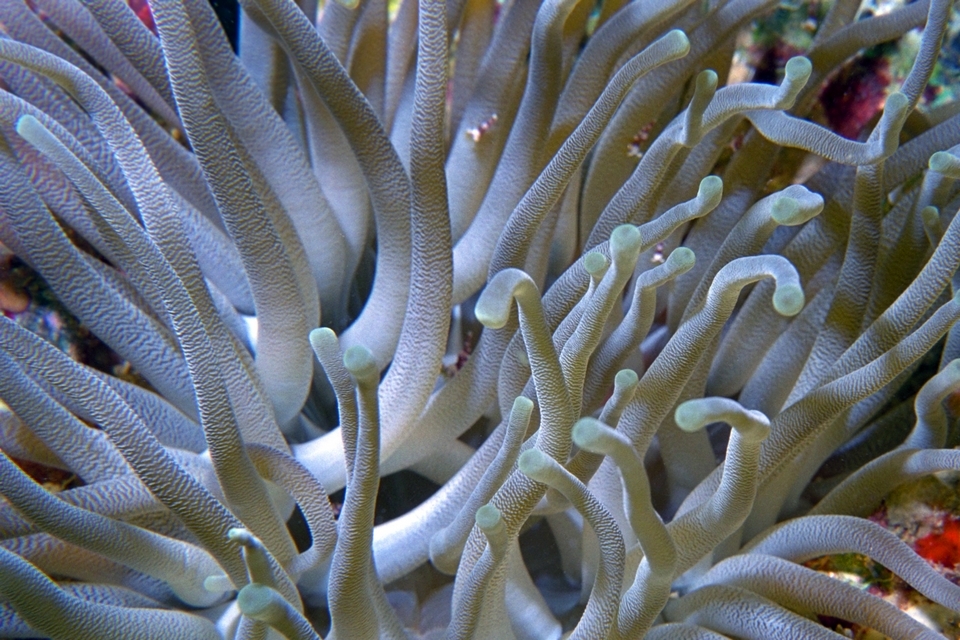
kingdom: Animalia
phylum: Cnidaria
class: Anthozoa
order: Actiniaria
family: Actiniidae
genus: Condylactis
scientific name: Condylactis gigantea
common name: Giant caribbean anemone
